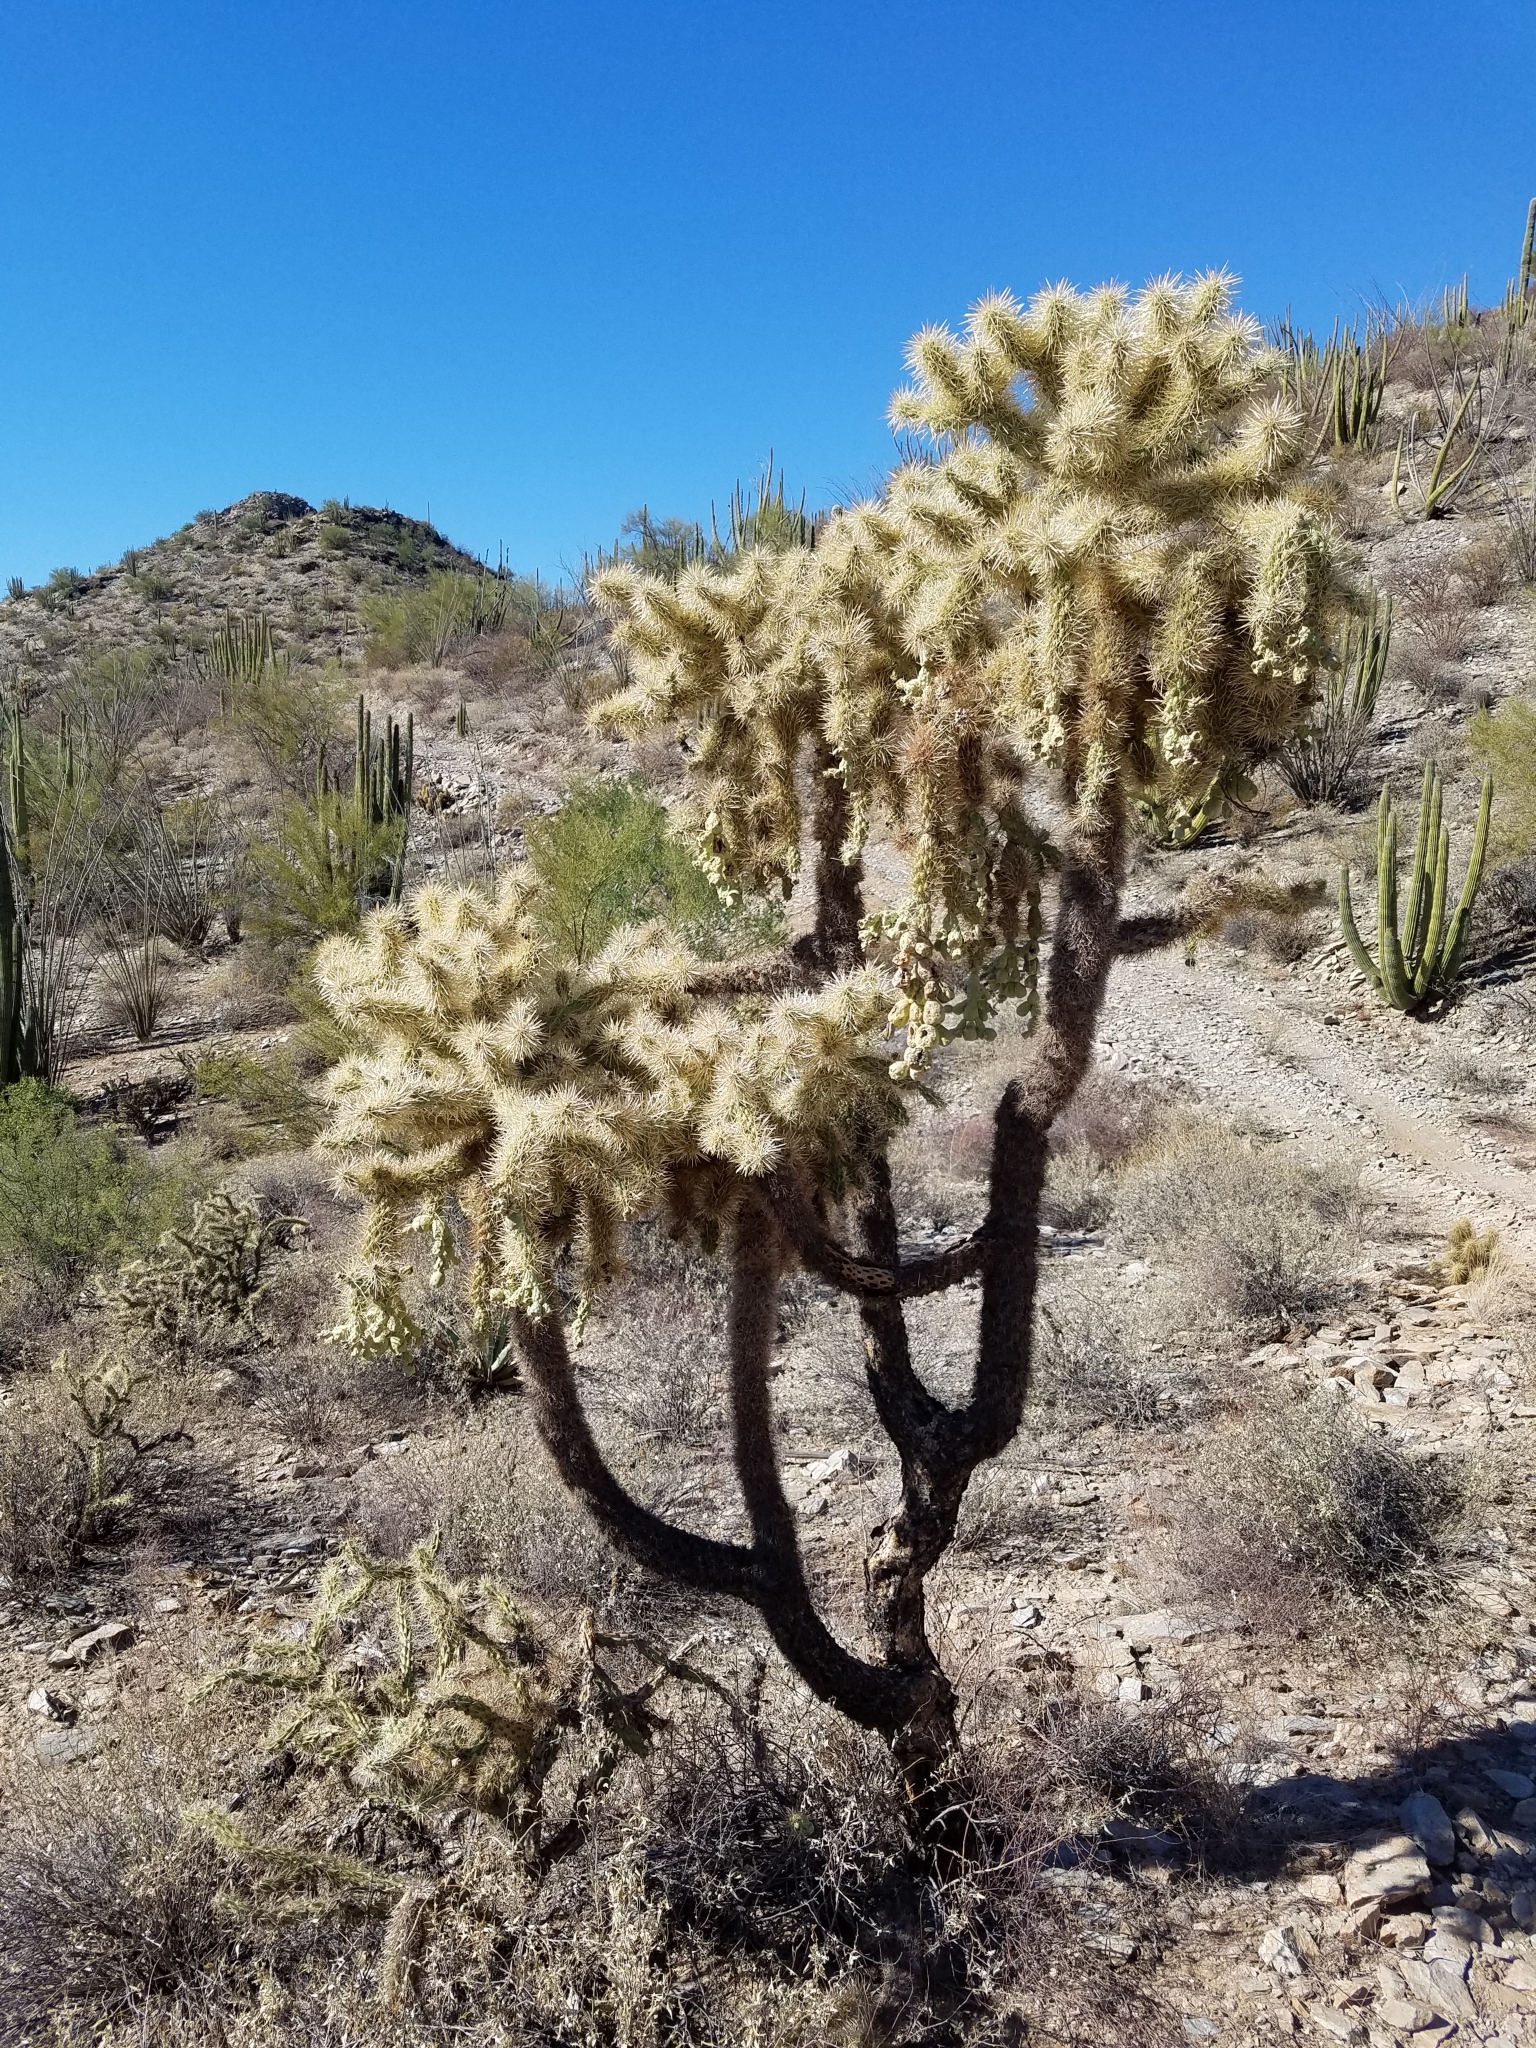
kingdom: Plantae
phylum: Tracheophyta
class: Magnoliopsida
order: Caryophyllales
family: Cactaceae
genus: Cylindropuntia
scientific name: Cylindropuntia fulgida
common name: Jumping cholla
